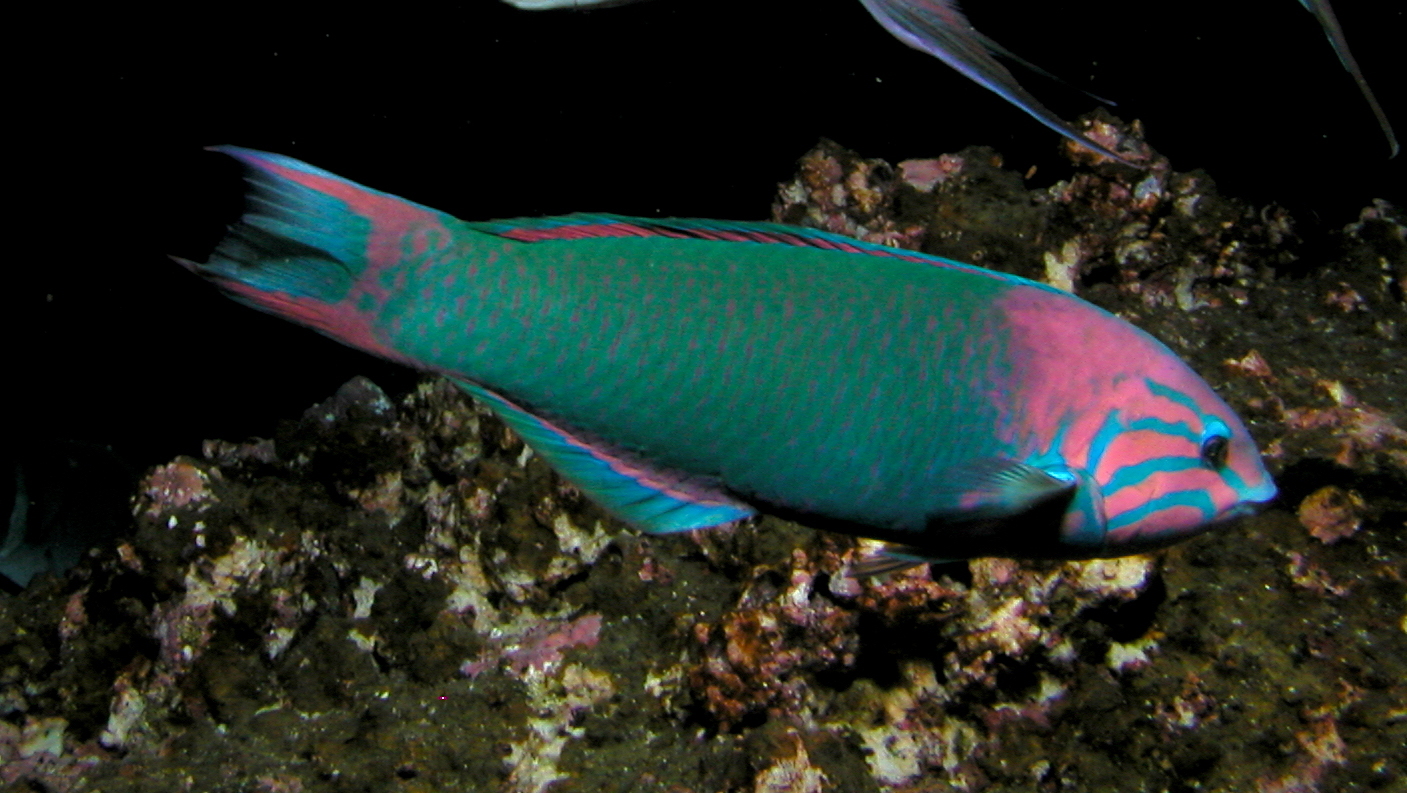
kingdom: Animalia
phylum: Chordata
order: Perciformes
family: Labridae
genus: Thalassoma
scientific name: Thalassoma grammaticum
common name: Sunset wrasse
